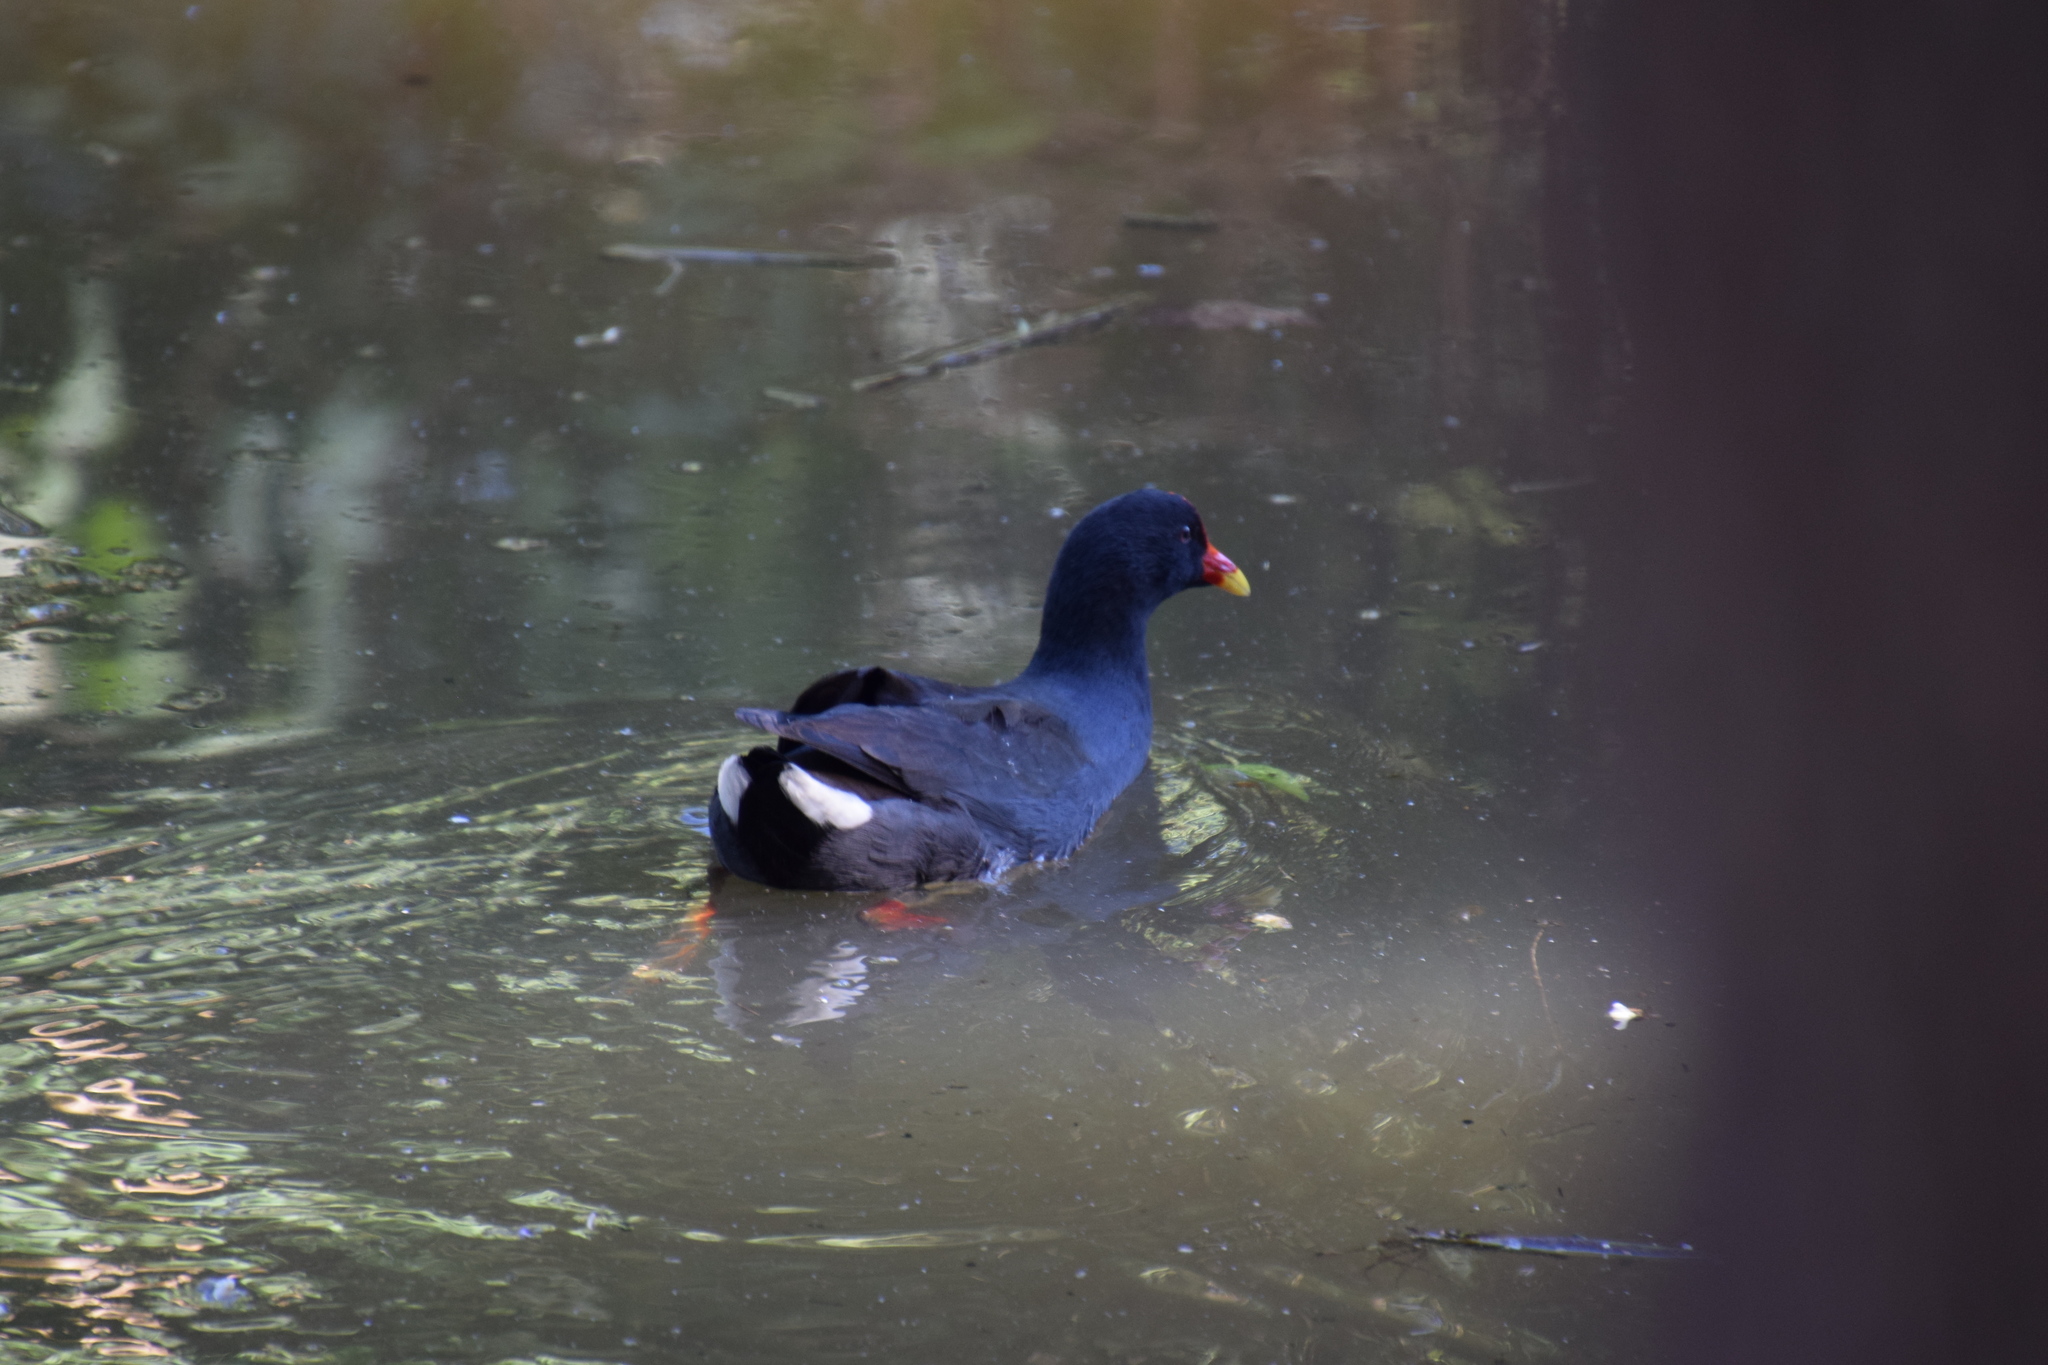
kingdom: Animalia
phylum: Chordata
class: Aves
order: Gruiformes
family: Rallidae
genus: Gallinula
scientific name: Gallinula tenebrosa
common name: Dusky moorhen
